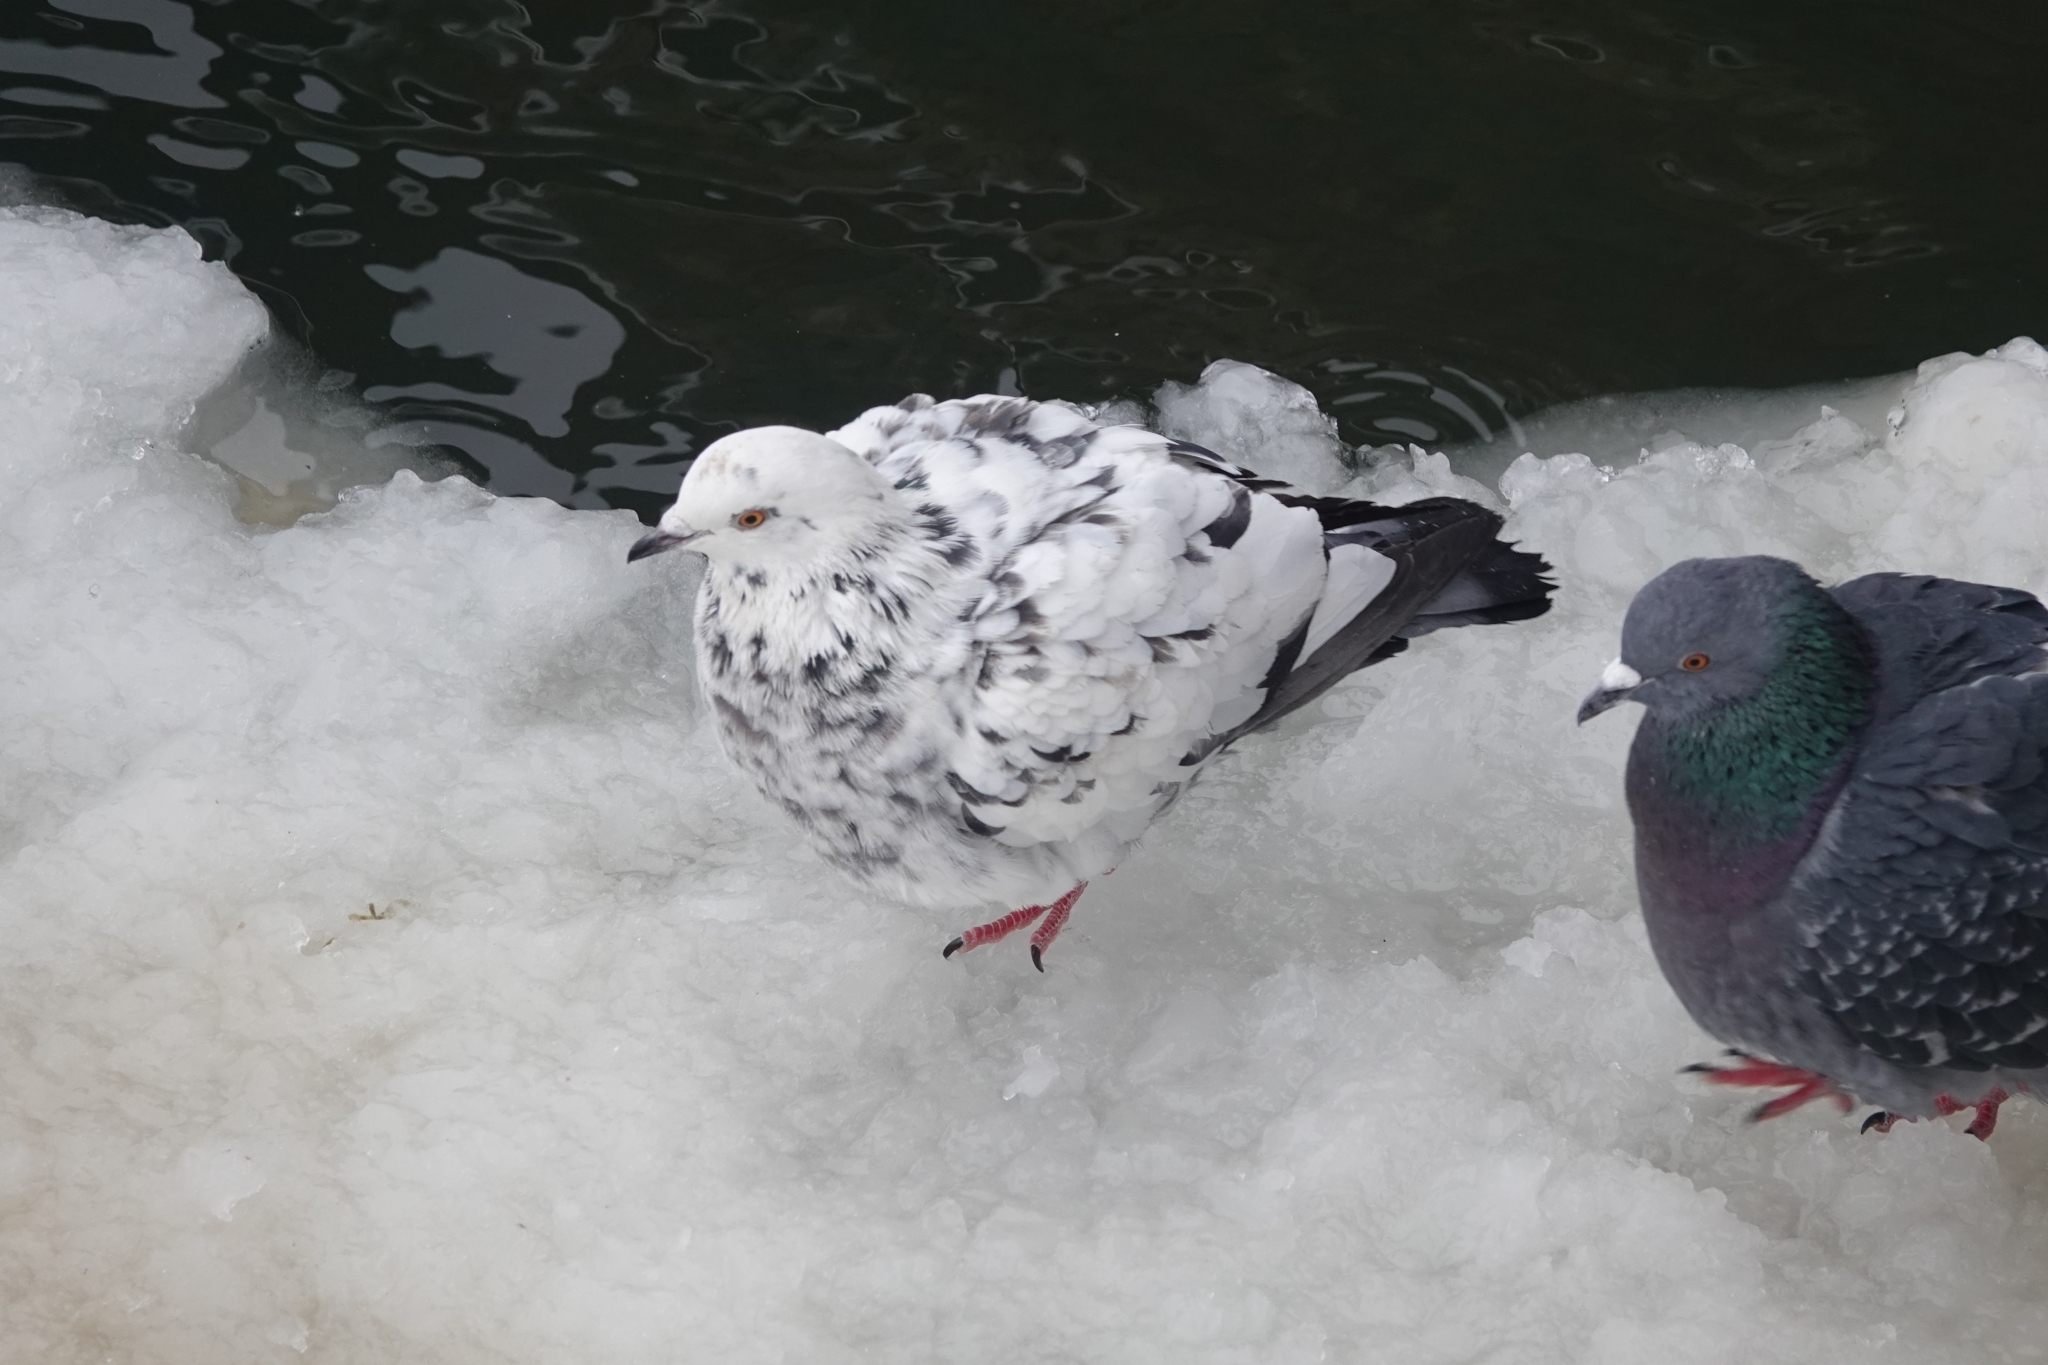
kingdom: Animalia
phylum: Chordata
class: Aves
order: Columbiformes
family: Columbidae
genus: Columba
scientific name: Columba livia
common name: Rock pigeon
